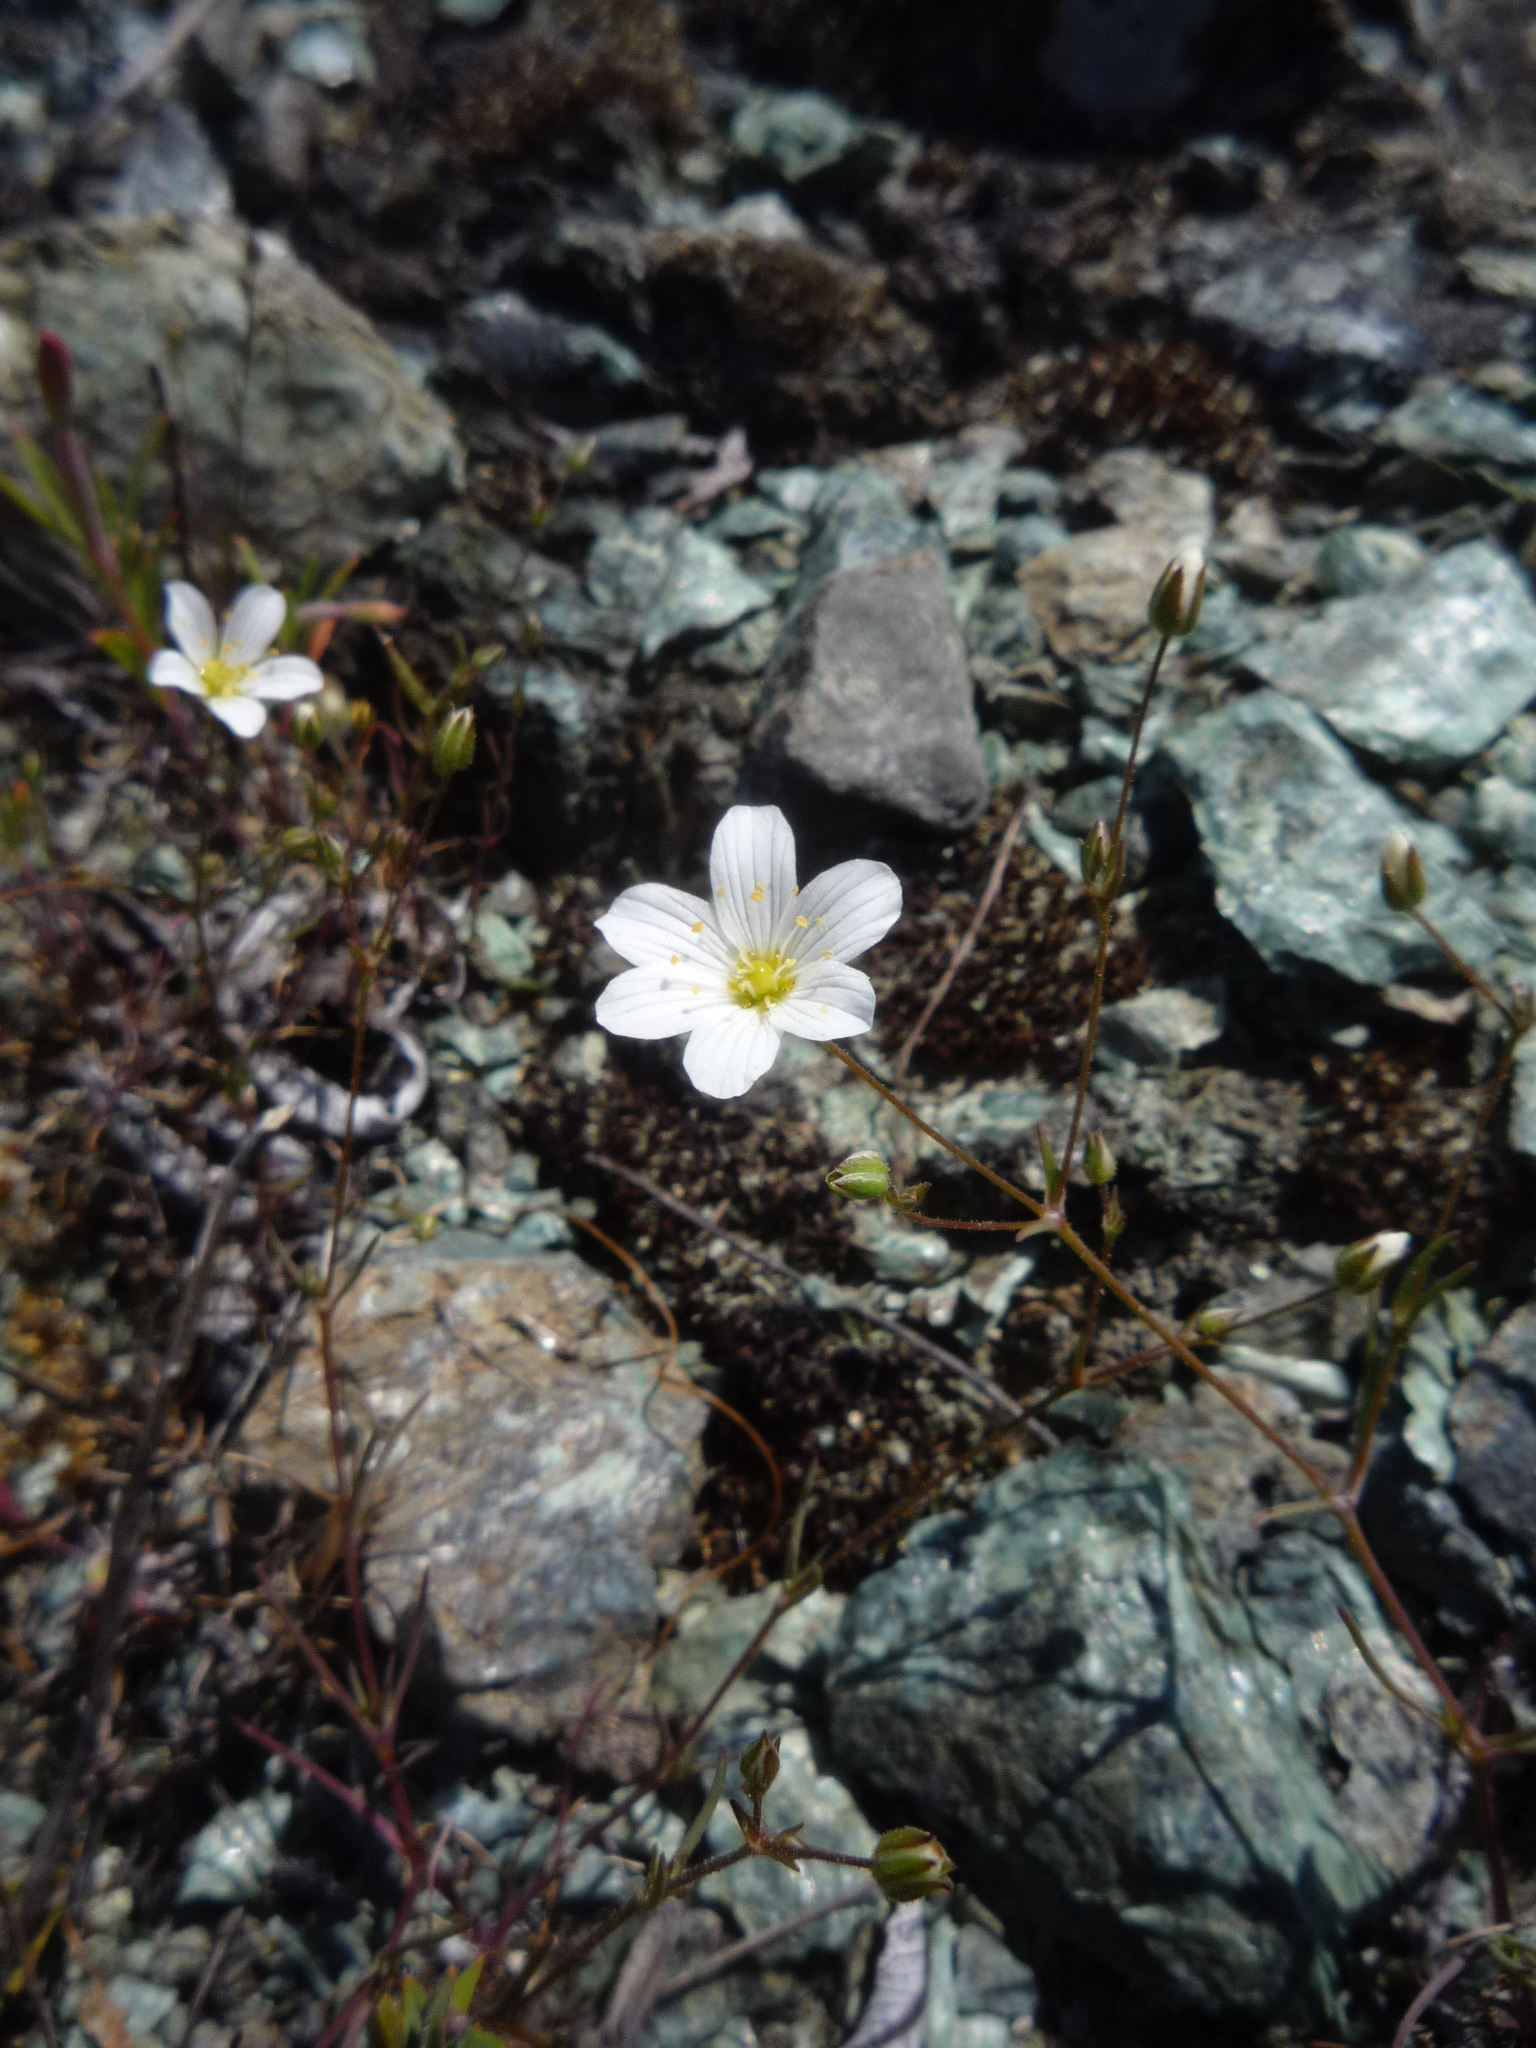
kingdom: Plantae
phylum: Tracheophyta
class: Magnoliopsida
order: Caryophyllales
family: Caryophyllaceae
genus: Sabulina
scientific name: Sabulina douglasii
